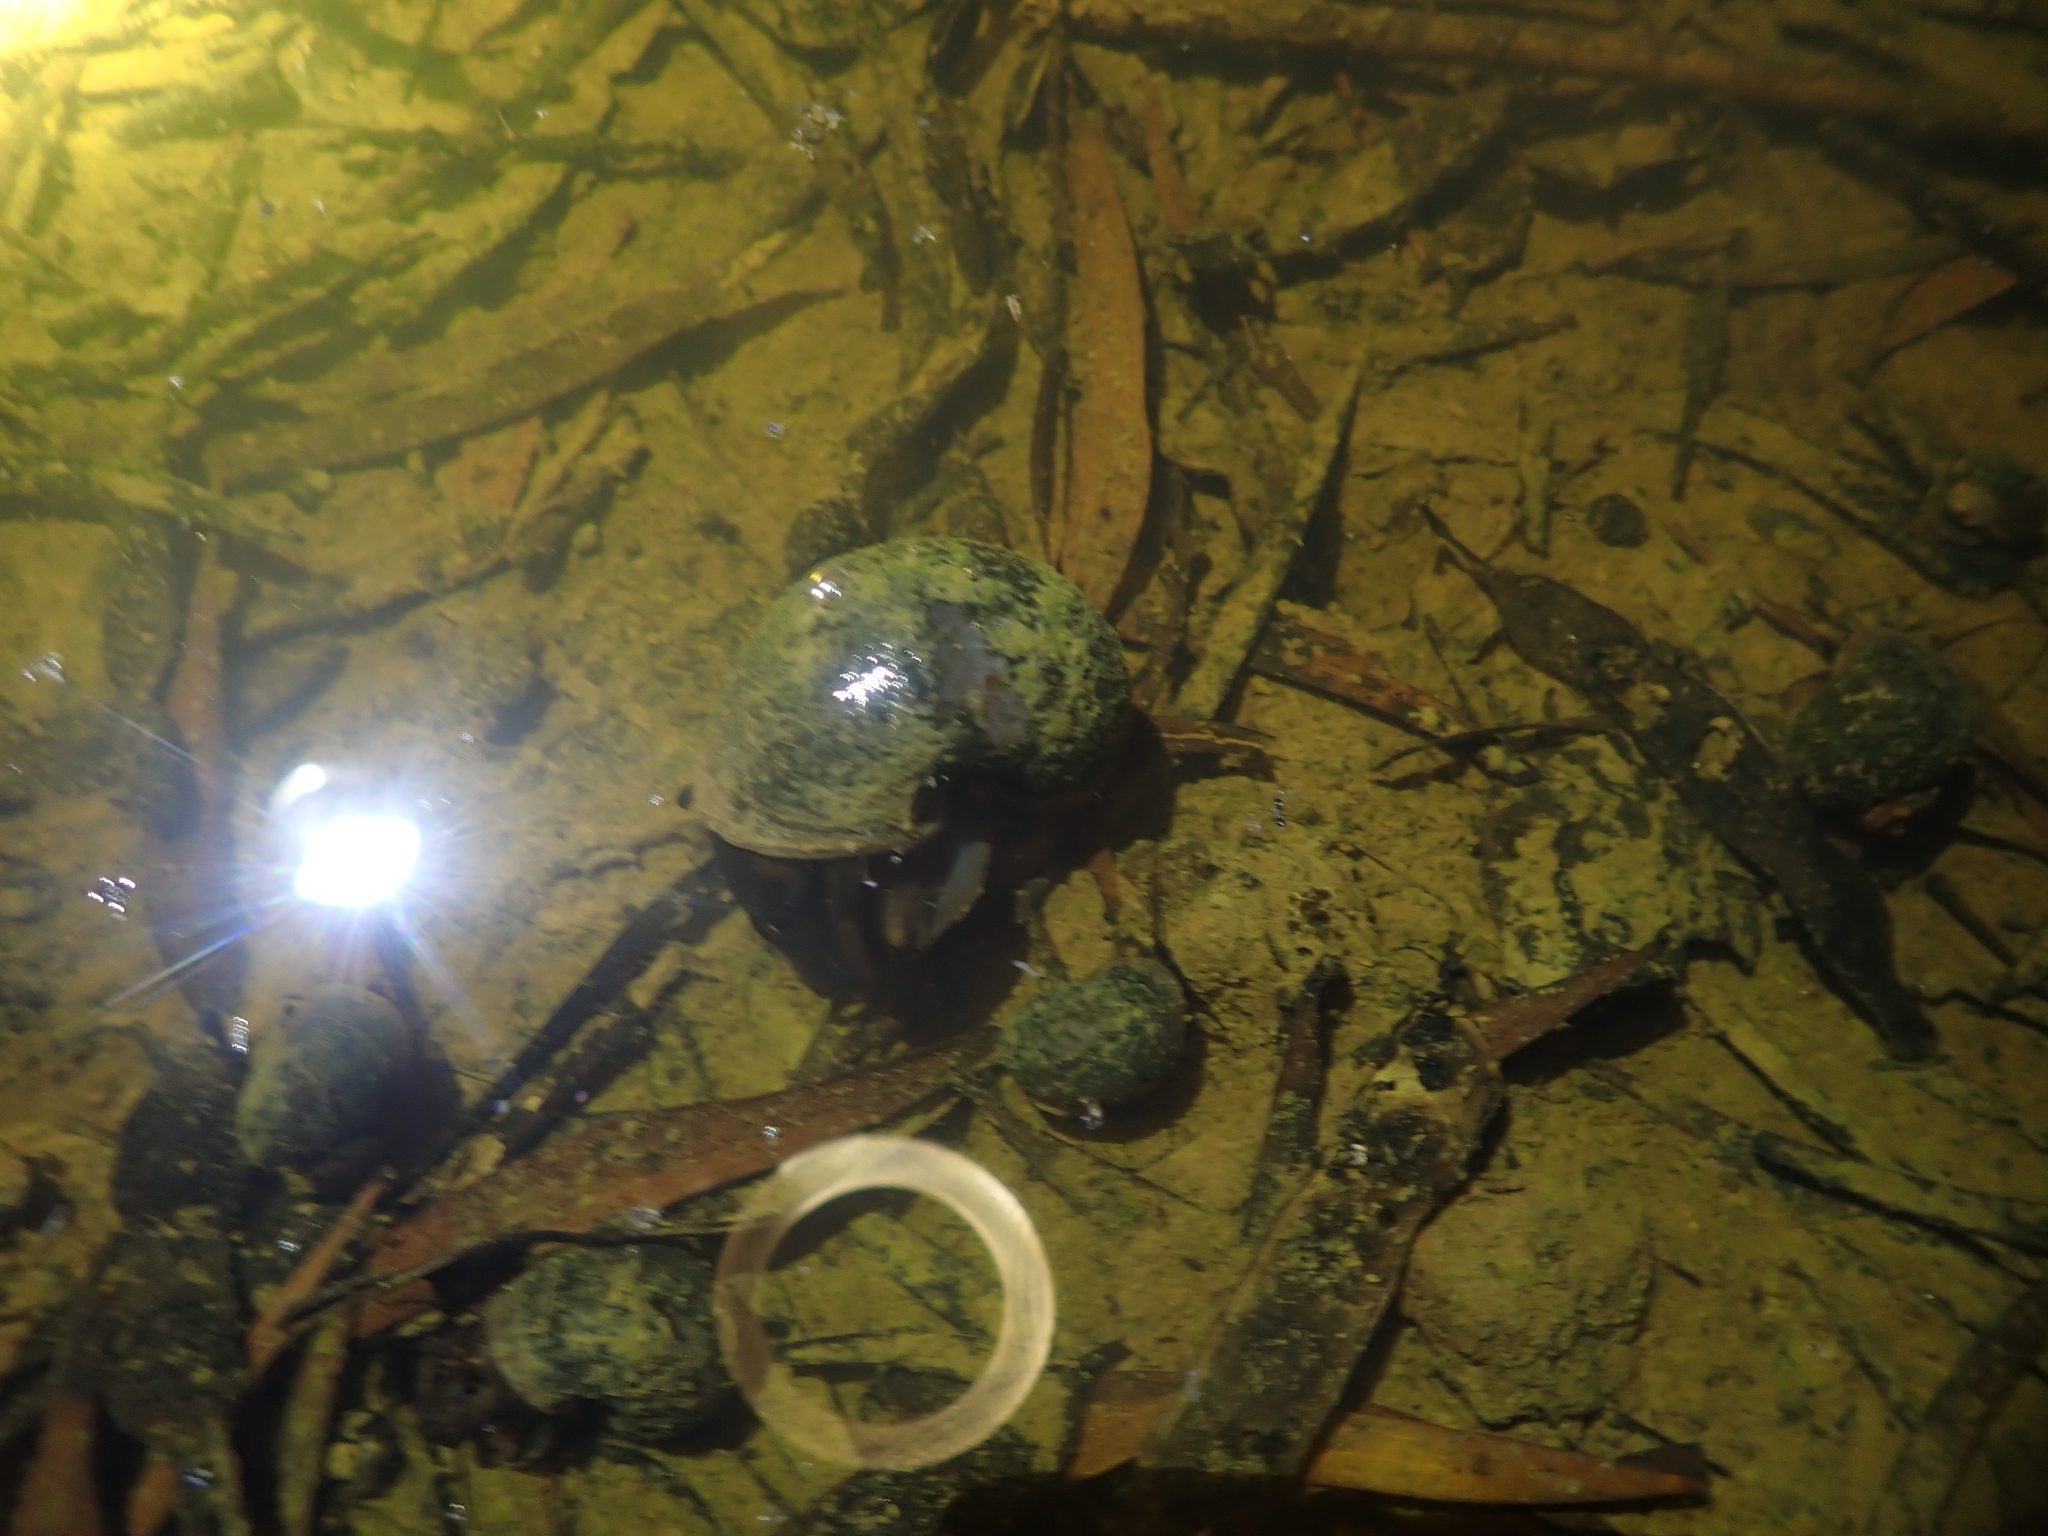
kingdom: Animalia
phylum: Mollusca
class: Gastropoda
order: Architaenioglossa
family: Ampullariidae
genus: Pomacea
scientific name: Pomacea canaliculata
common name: Channeled applesnail
